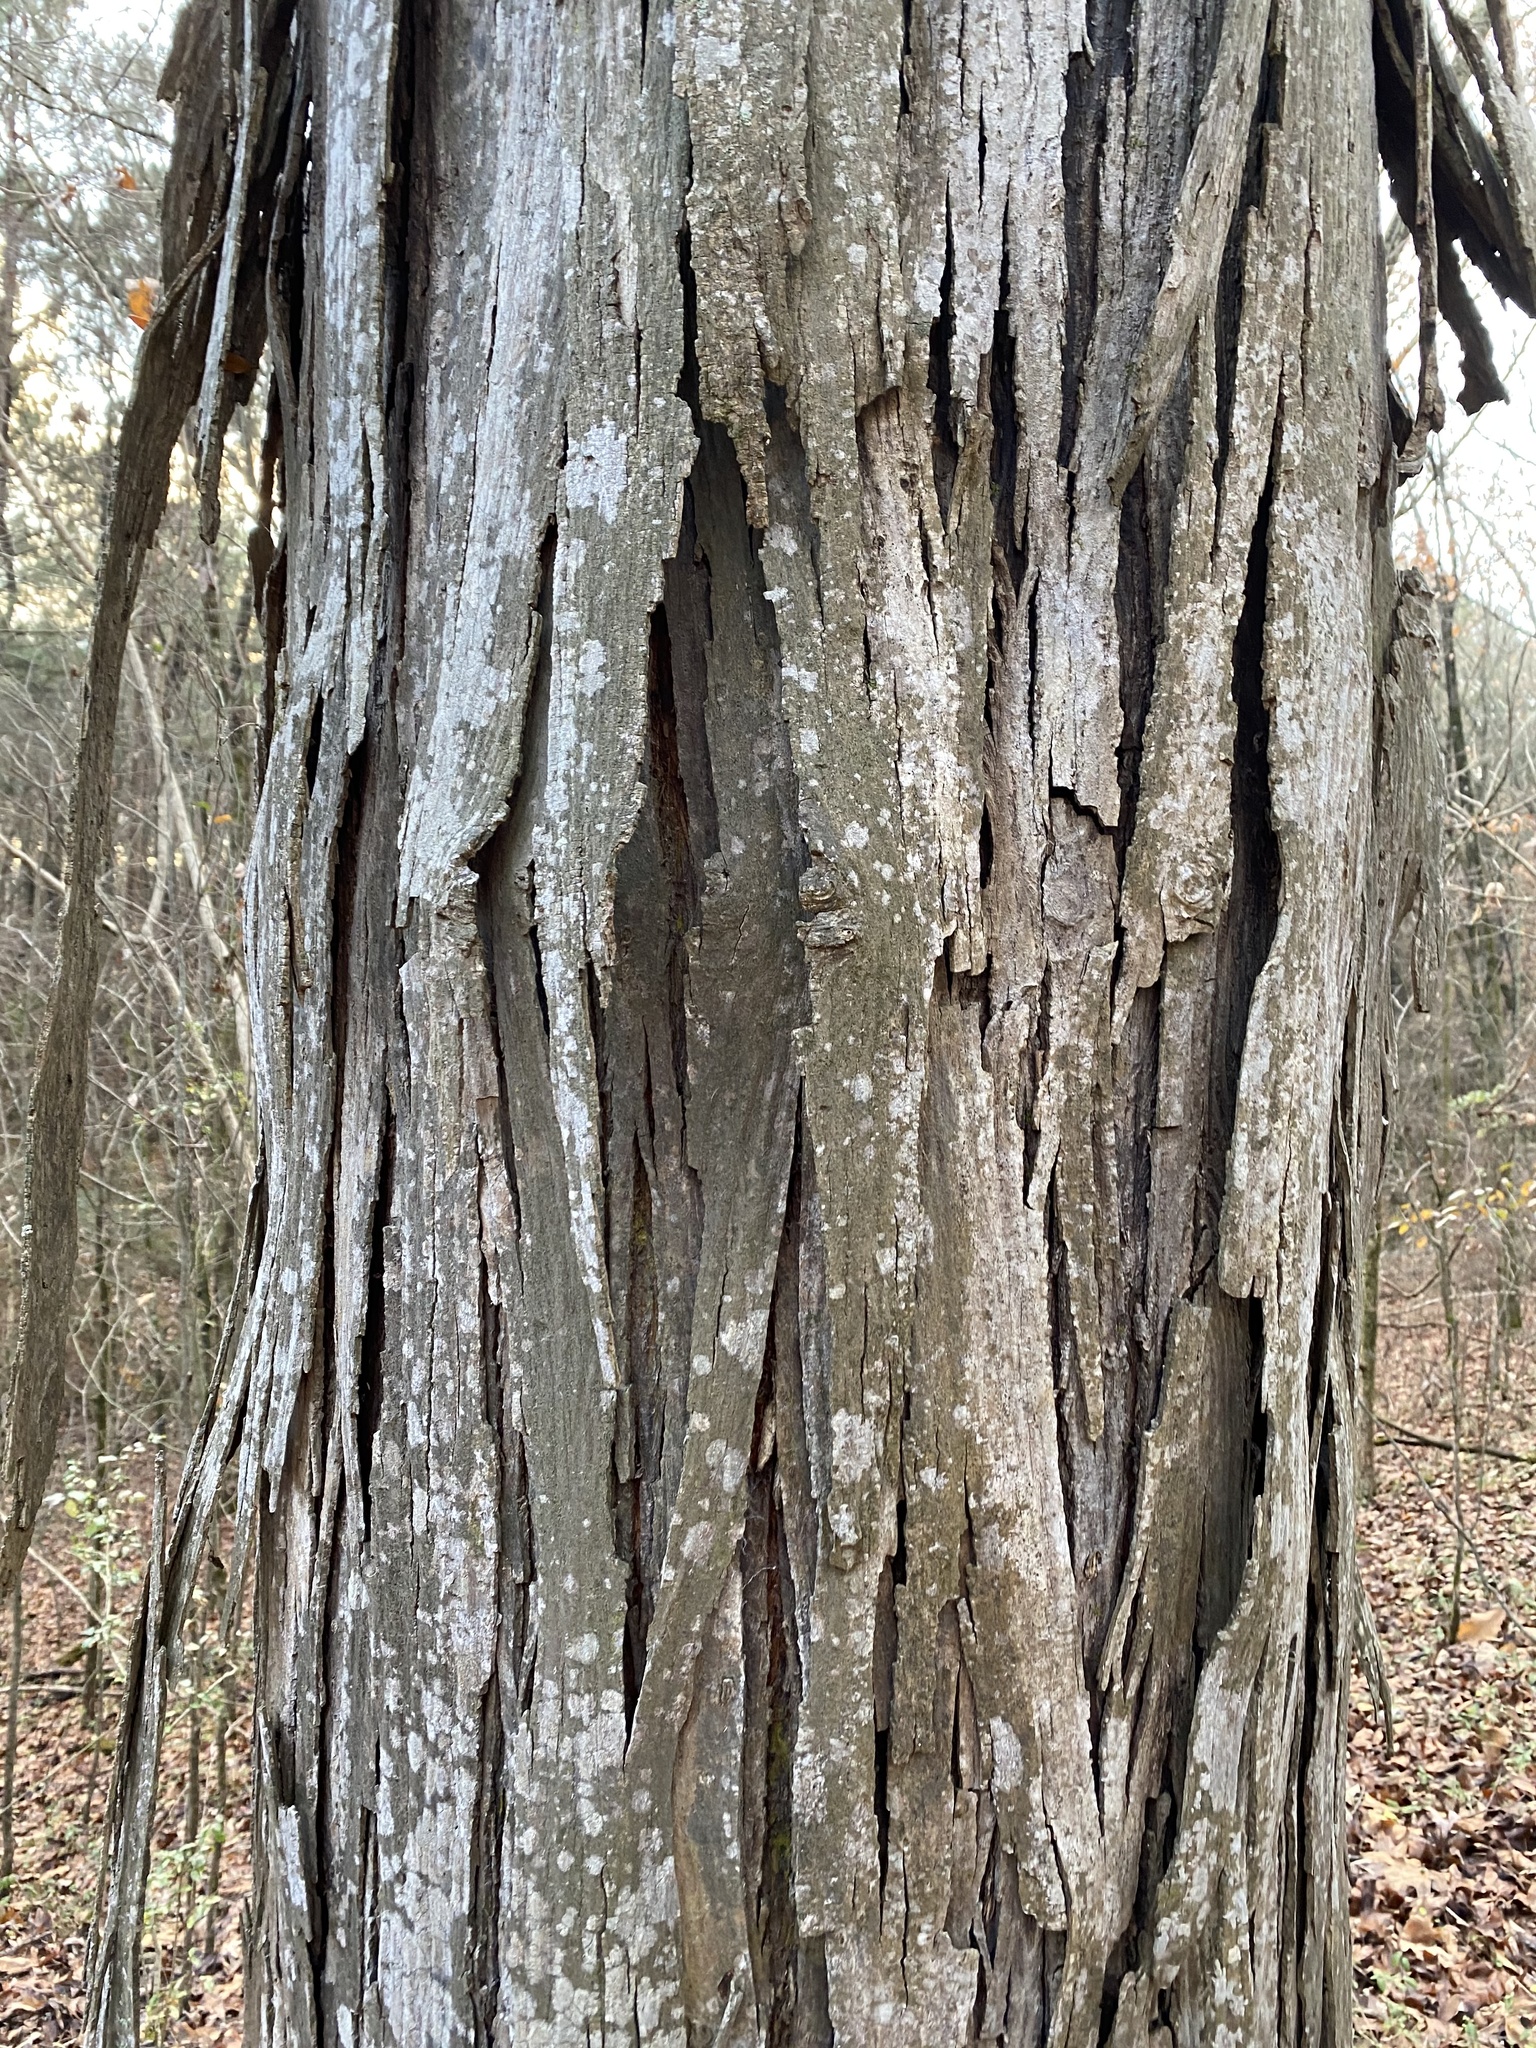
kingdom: Plantae
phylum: Tracheophyta
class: Magnoliopsida
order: Fagales
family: Juglandaceae
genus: Carya
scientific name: Carya ovata
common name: Shagbark hickory
